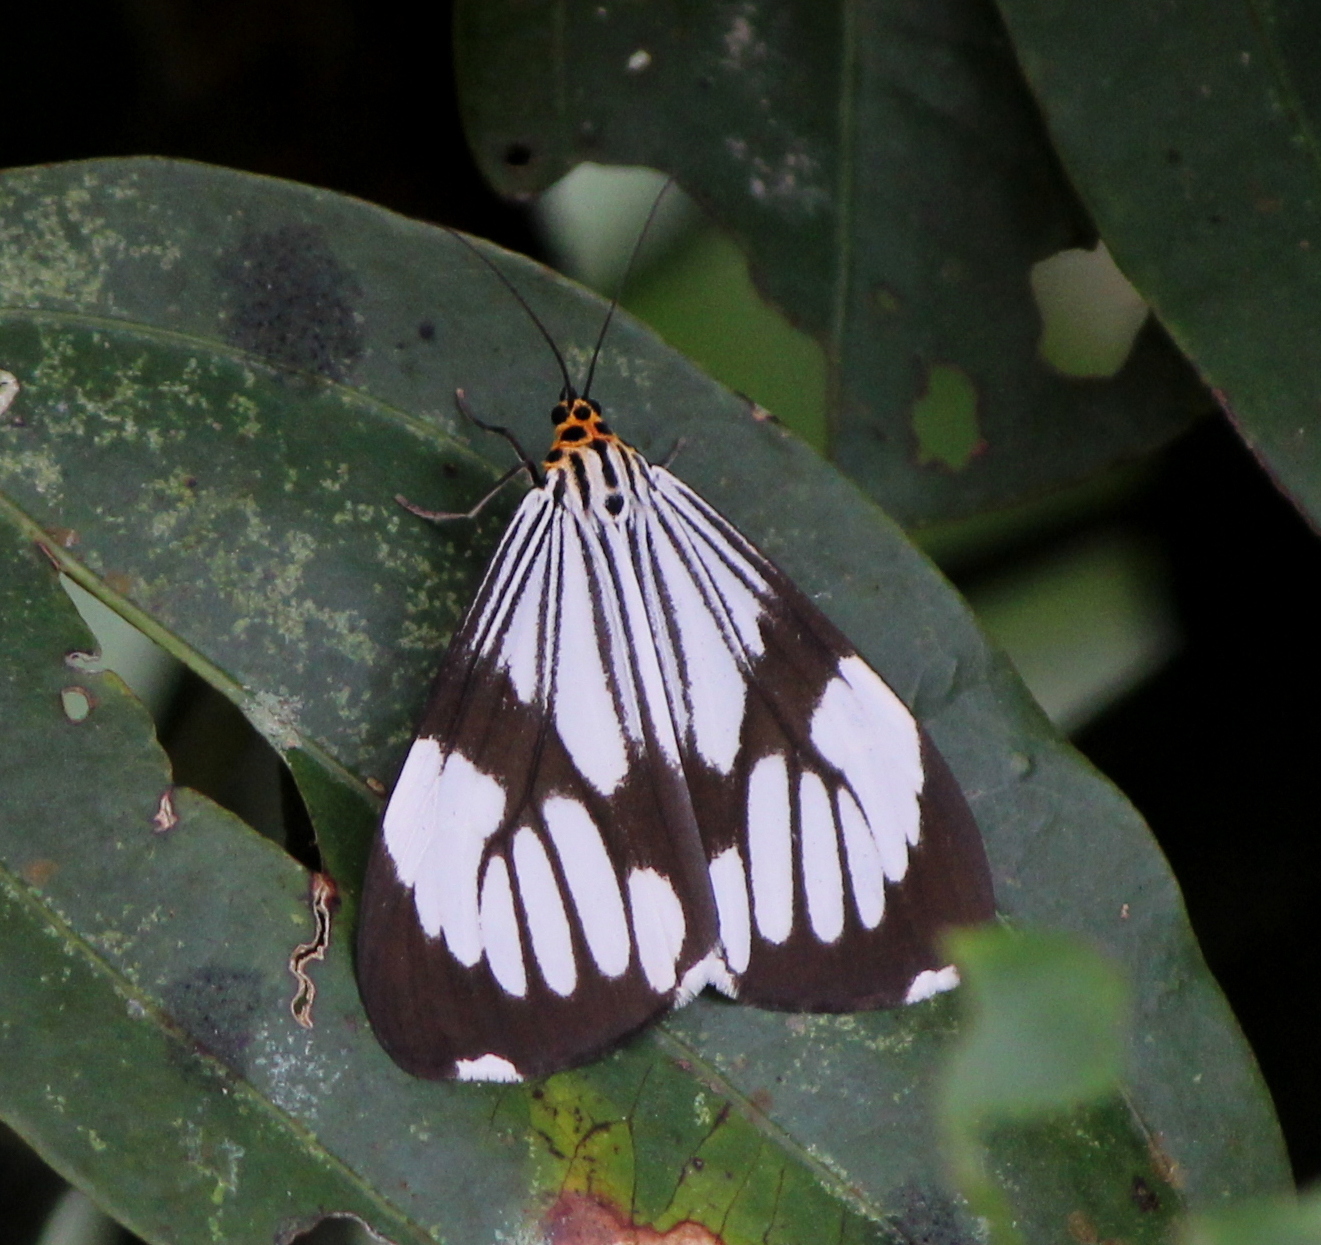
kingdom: Animalia
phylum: Arthropoda
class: Insecta
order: Lepidoptera
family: Erebidae
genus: Nyctemera
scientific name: Nyctemera coleta
